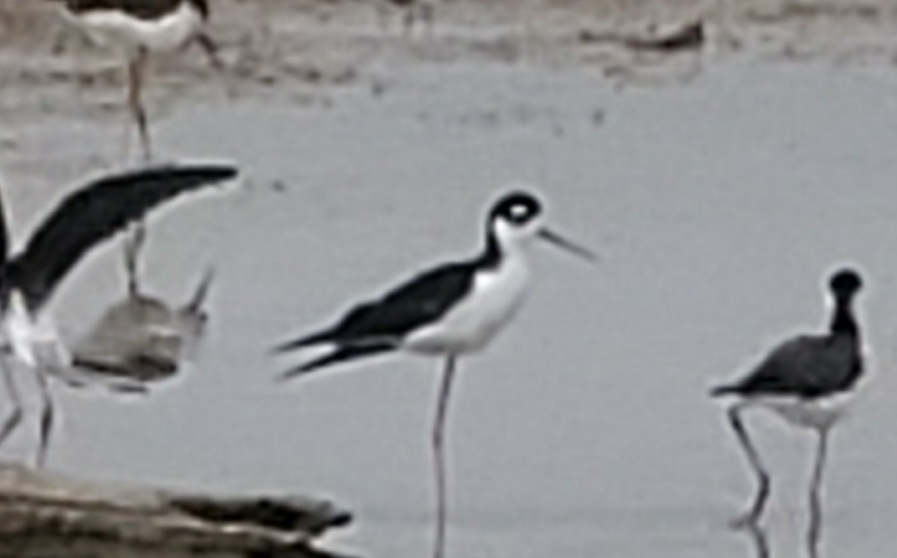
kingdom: Animalia
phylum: Chordata
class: Aves
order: Charadriiformes
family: Recurvirostridae
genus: Himantopus
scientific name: Himantopus mexicanus
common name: Black-necked stilt
